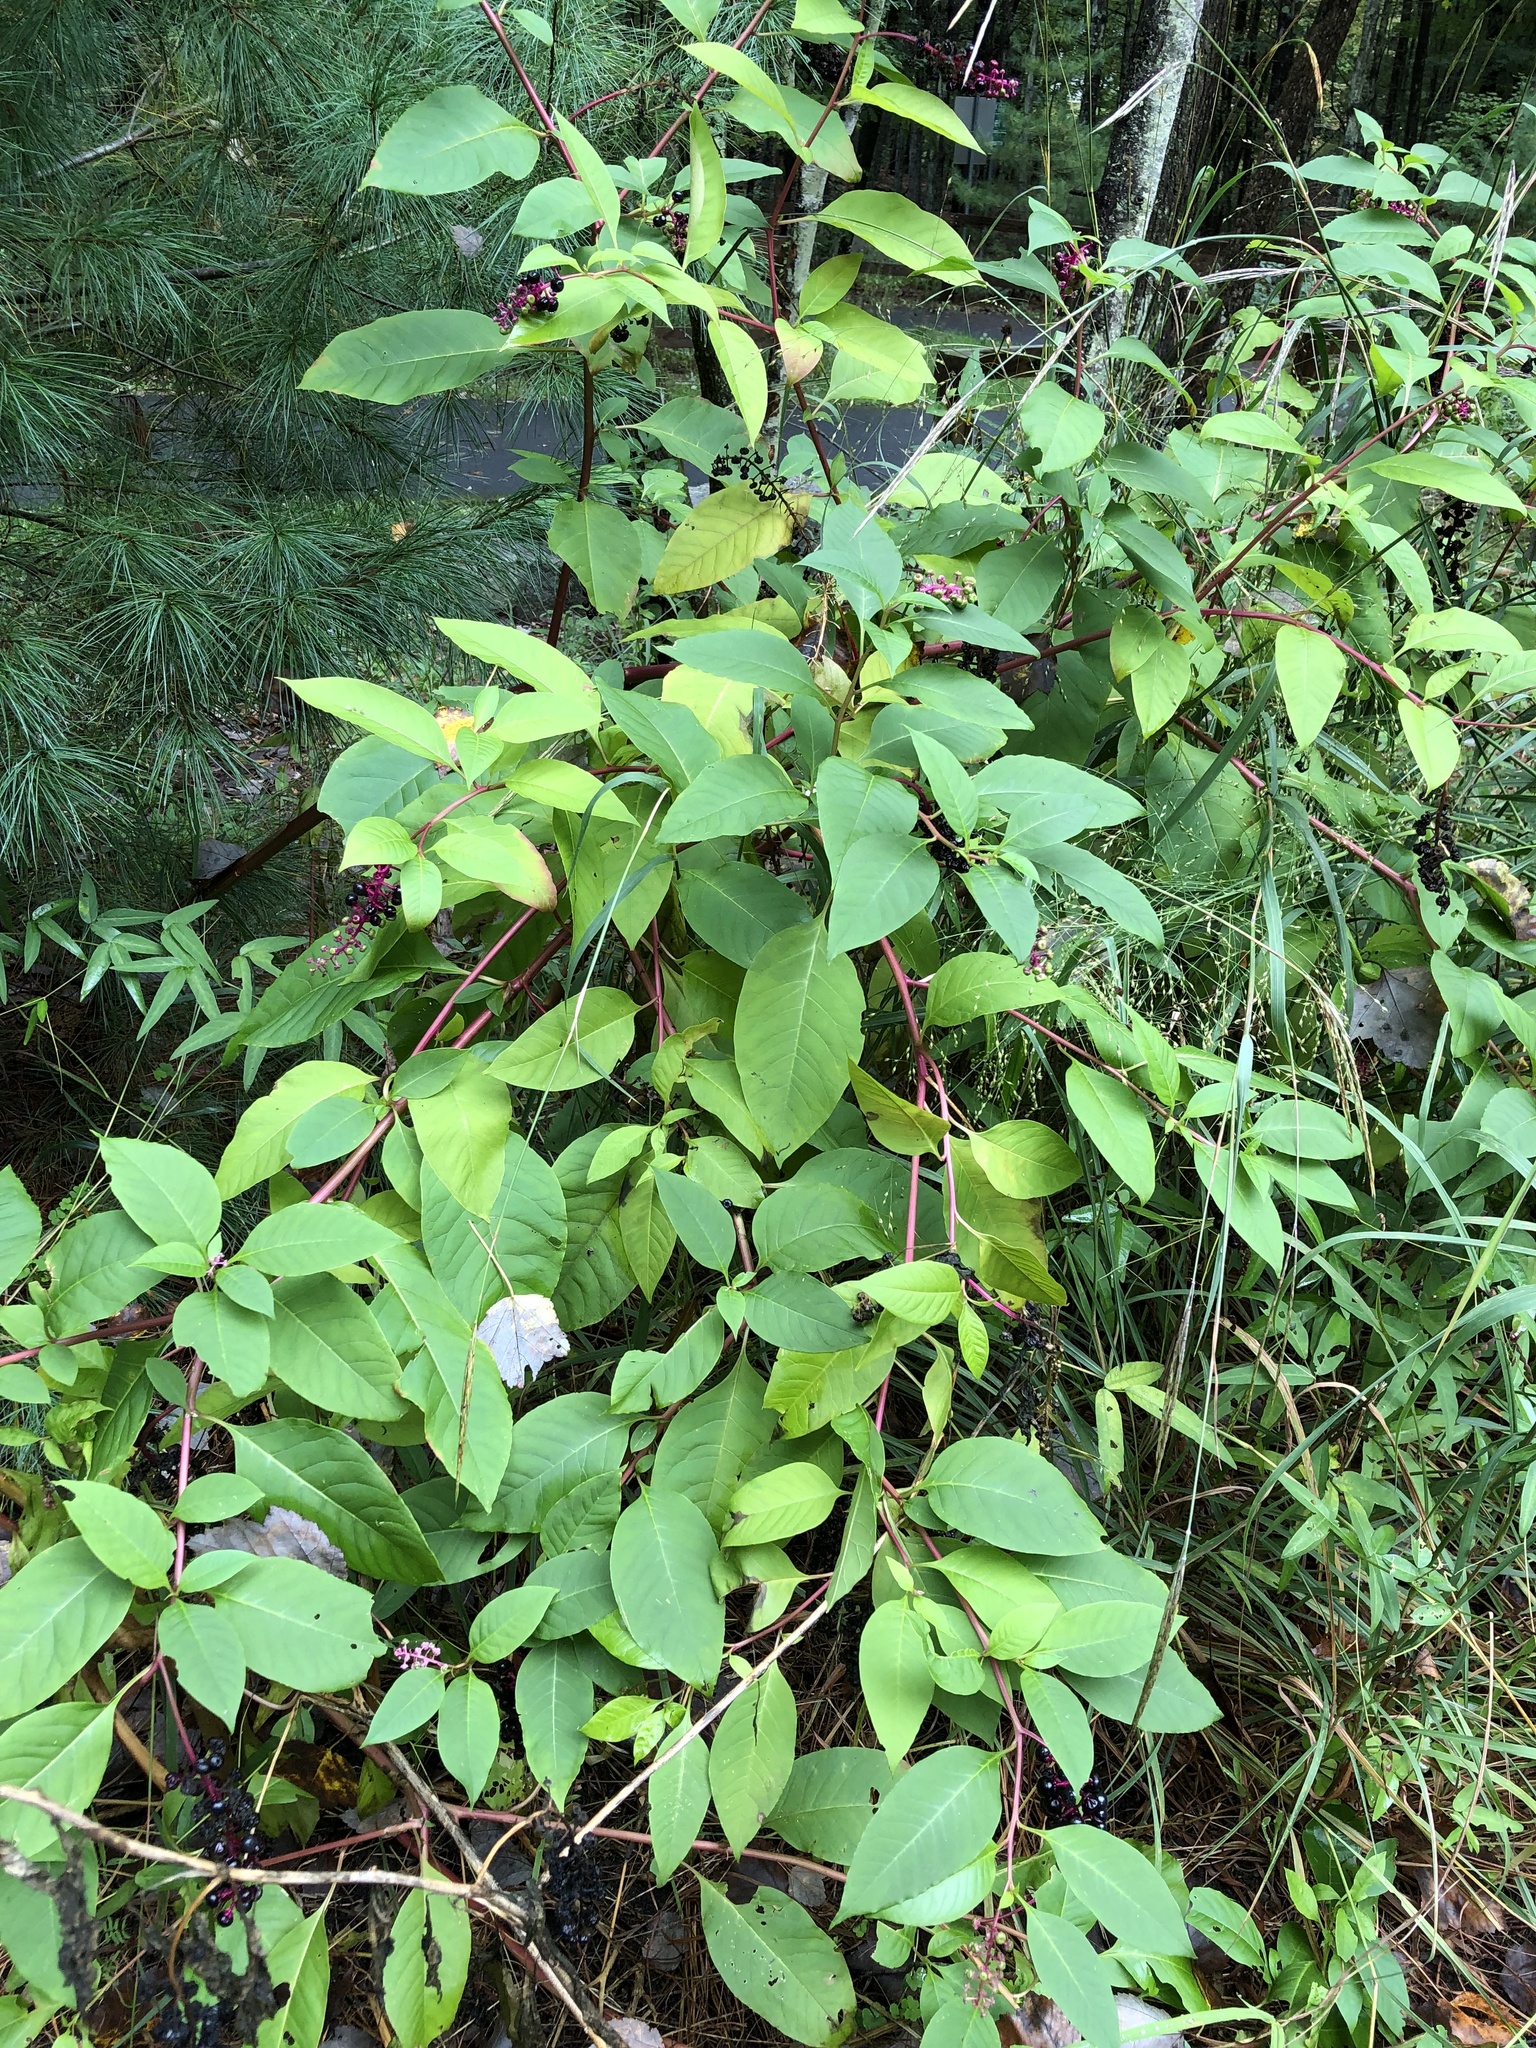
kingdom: Plantae
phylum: Tracheophyta
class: Magnoliopsida
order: Caryophyllales
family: Phytolaccaceae
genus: Phytolacca
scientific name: Phytolacca americana
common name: American pokeweed
